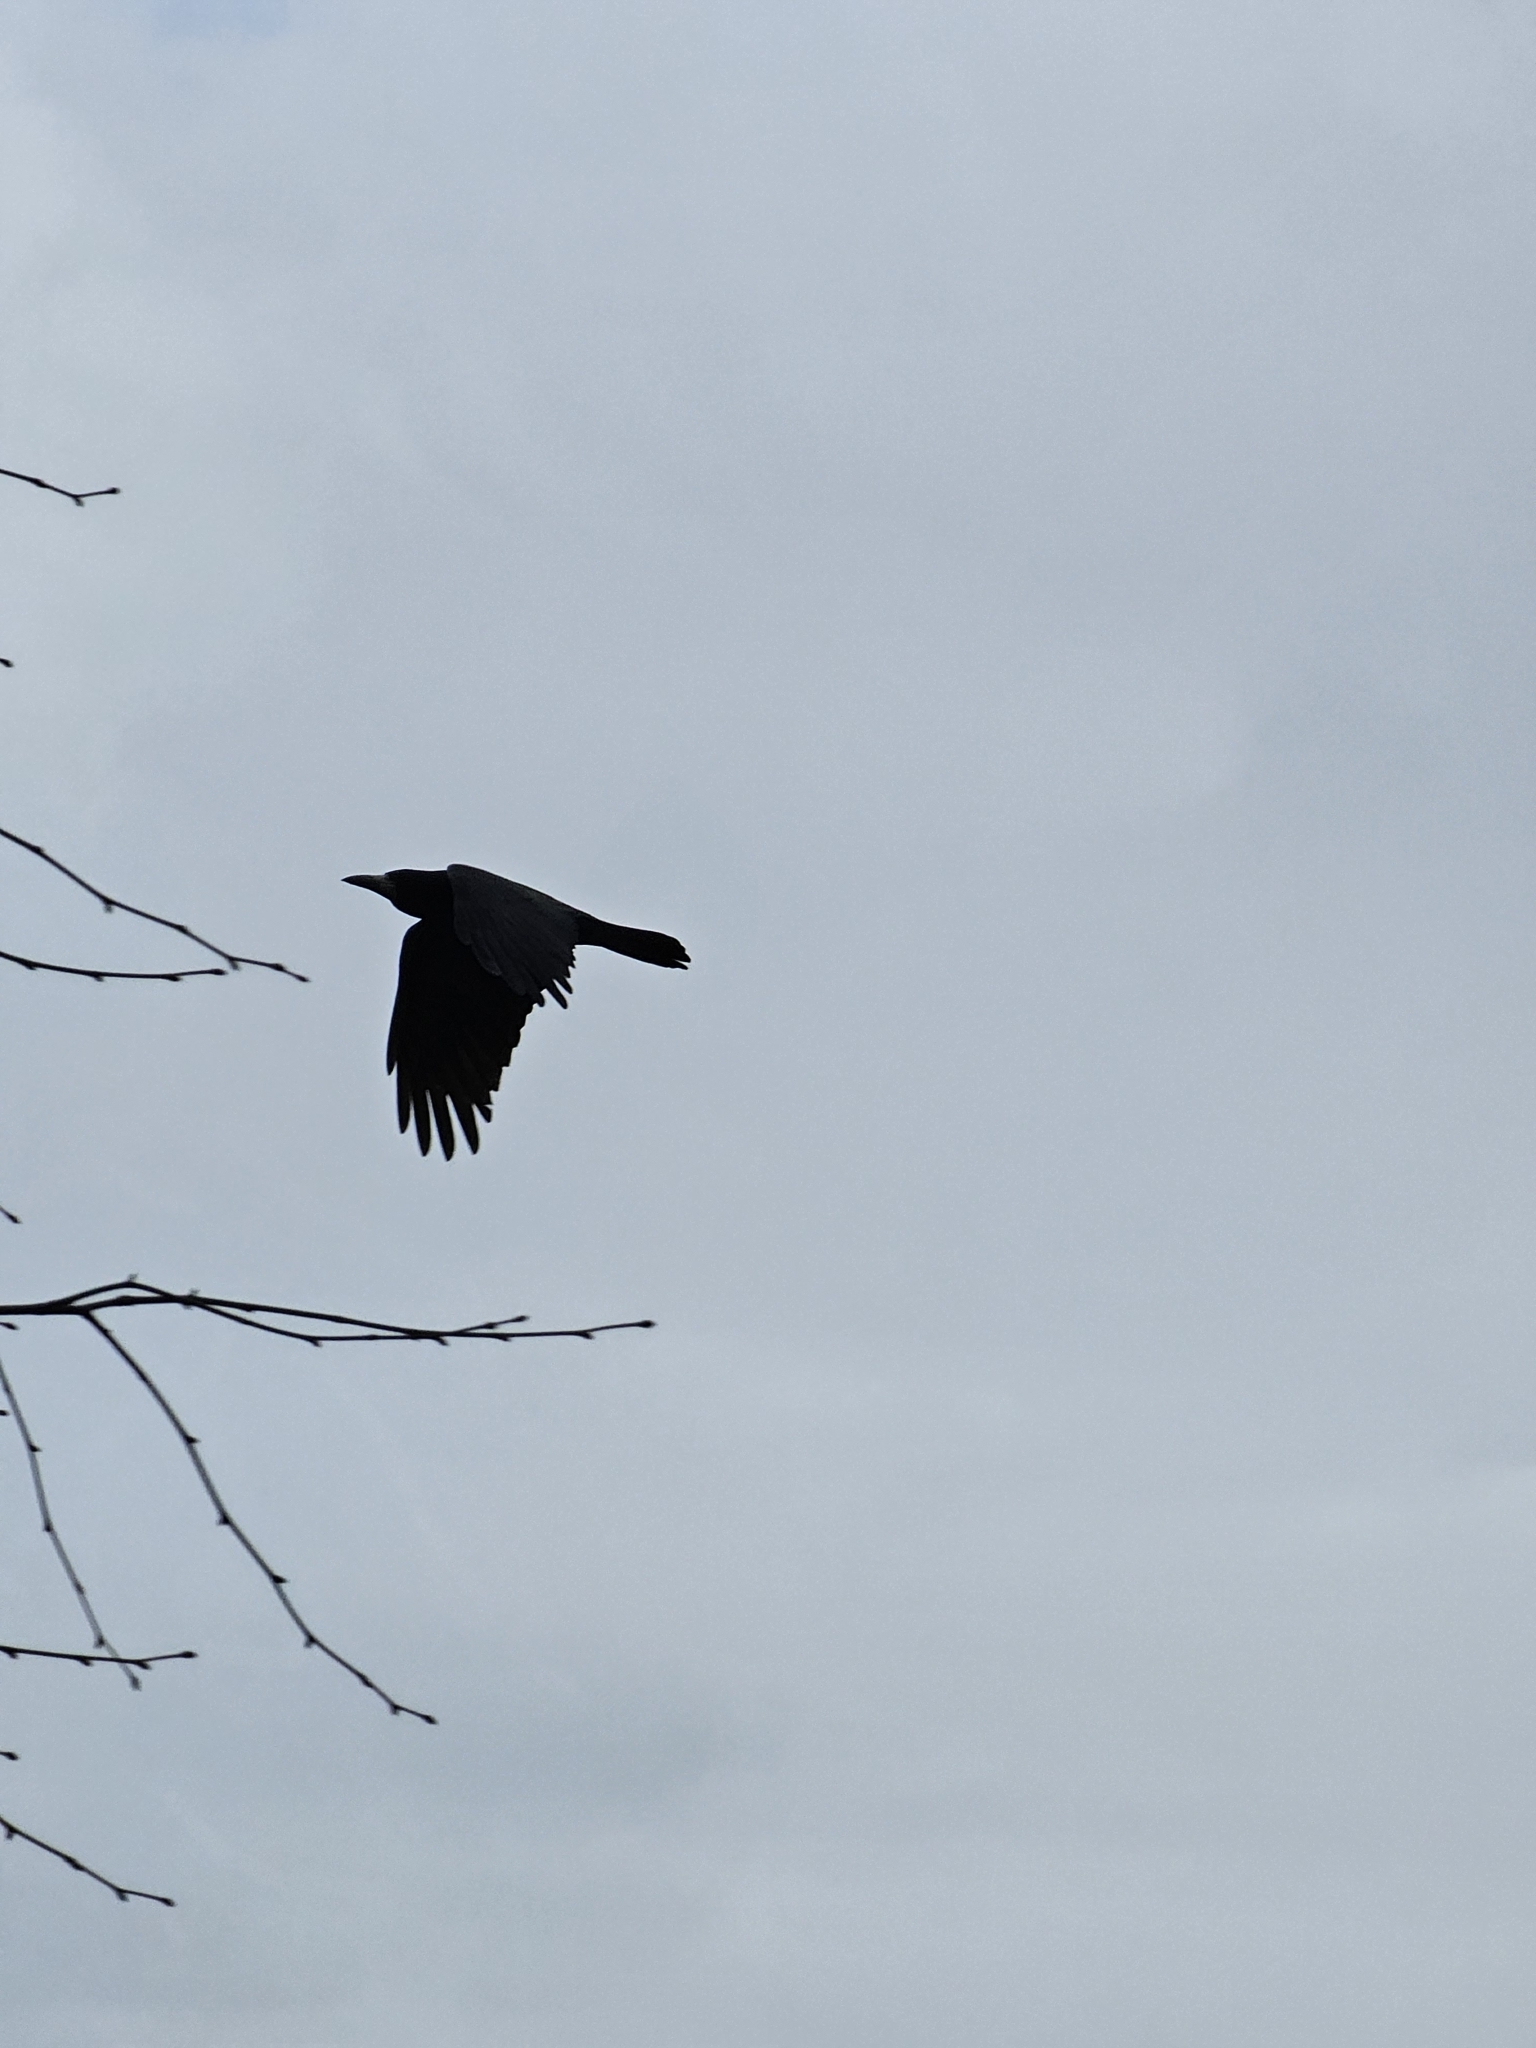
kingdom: Animalia
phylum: Chordata
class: Aves
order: Passeriformes
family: Corvidae
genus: Corvus
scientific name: Corvus frugilegus
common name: Rook
